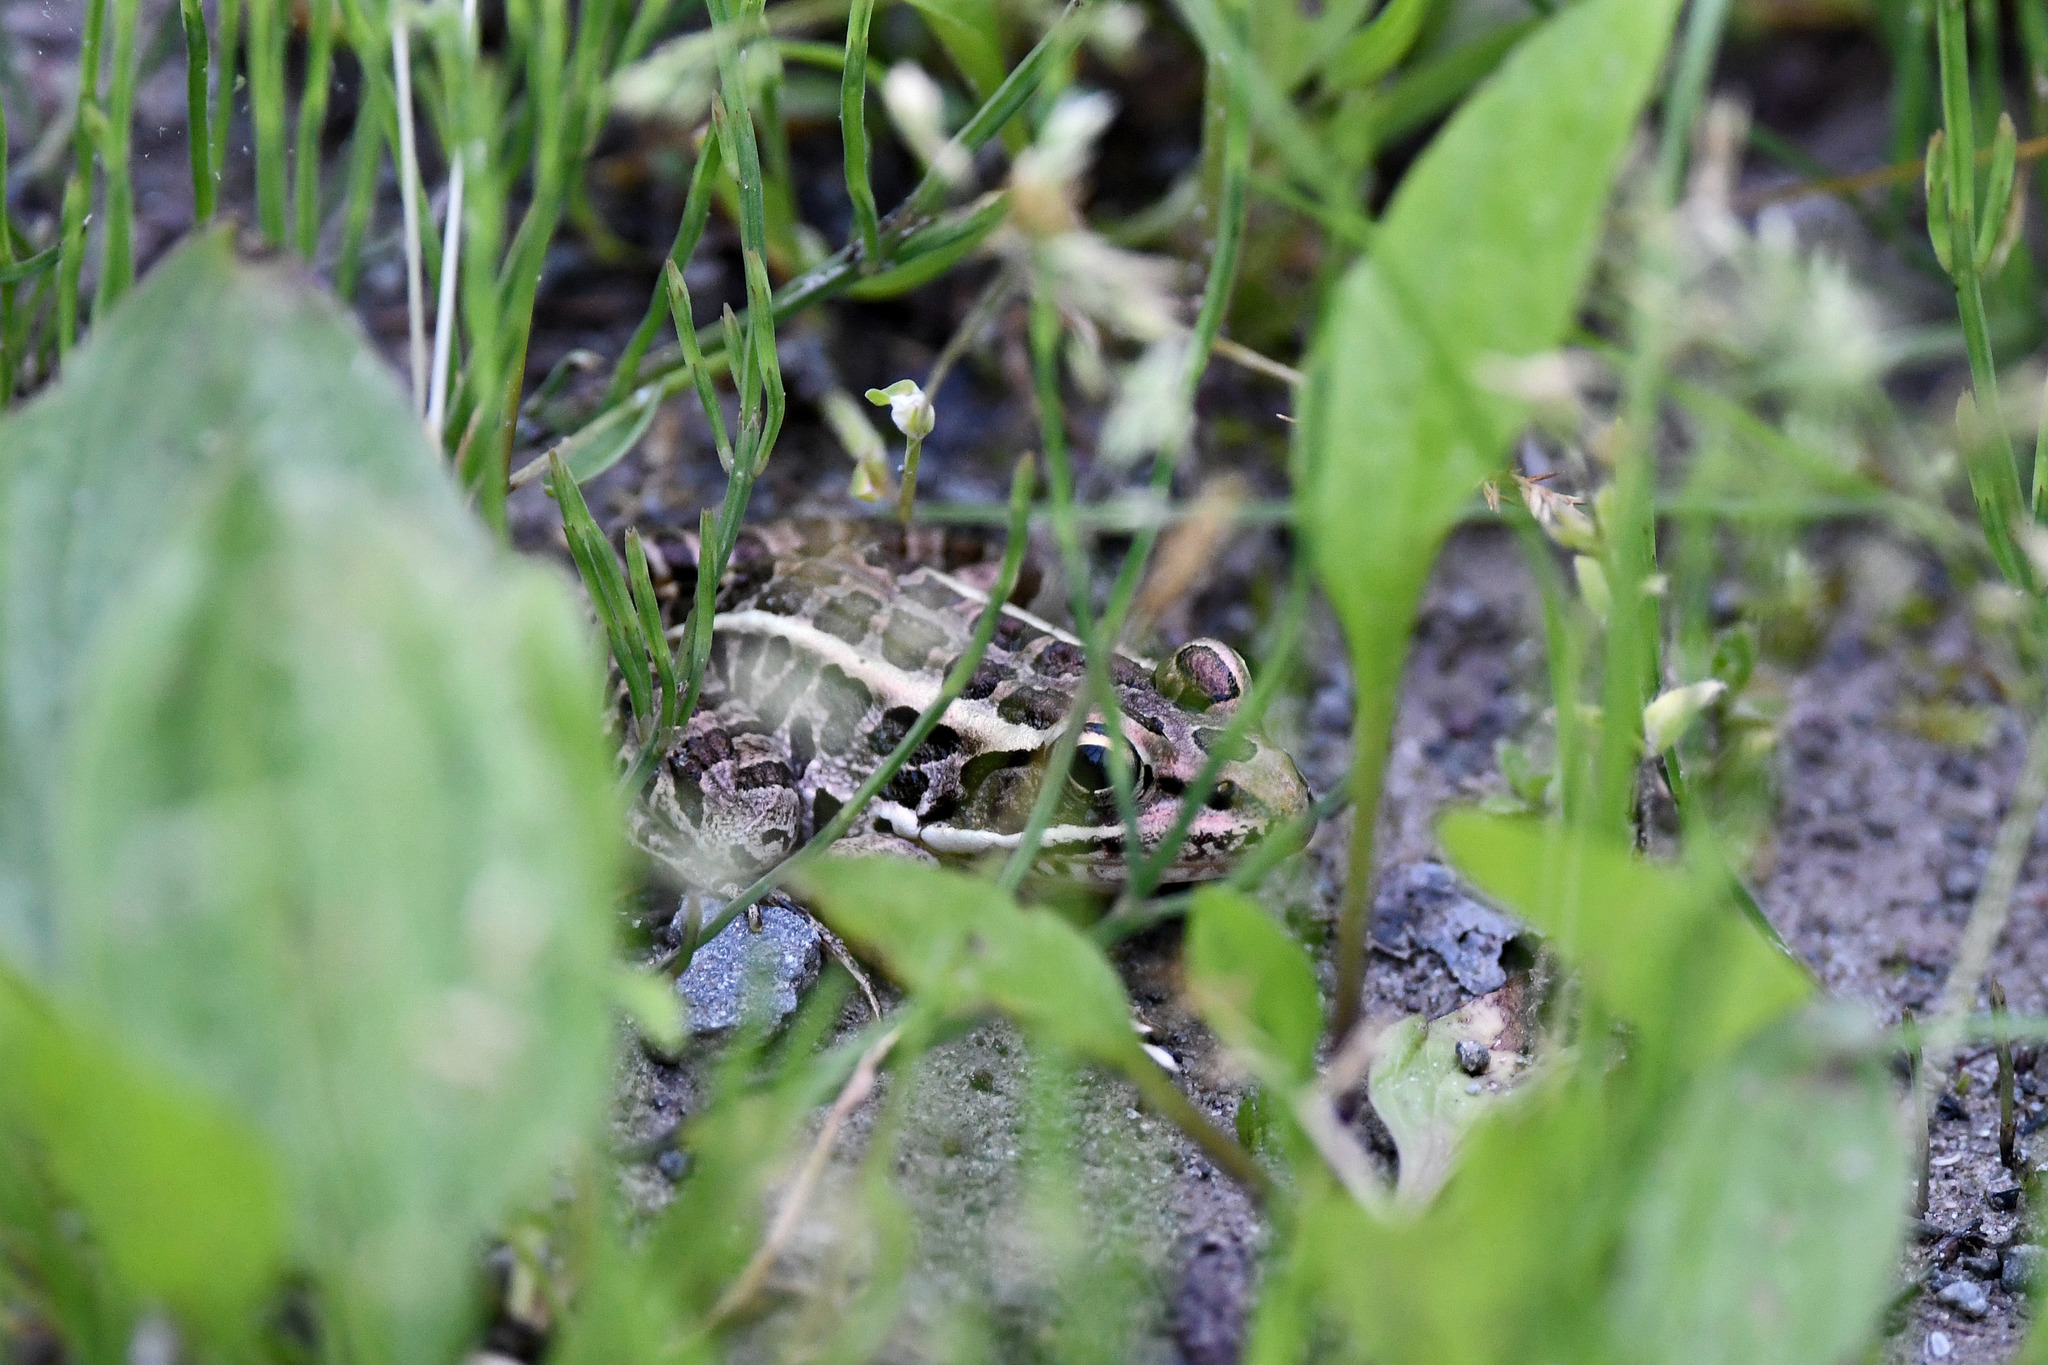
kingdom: Animalia
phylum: Chordata
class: Amphibia
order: Anura
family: Ranidae
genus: Lithobates
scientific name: Lithobates palustris
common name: Pickerel frog
